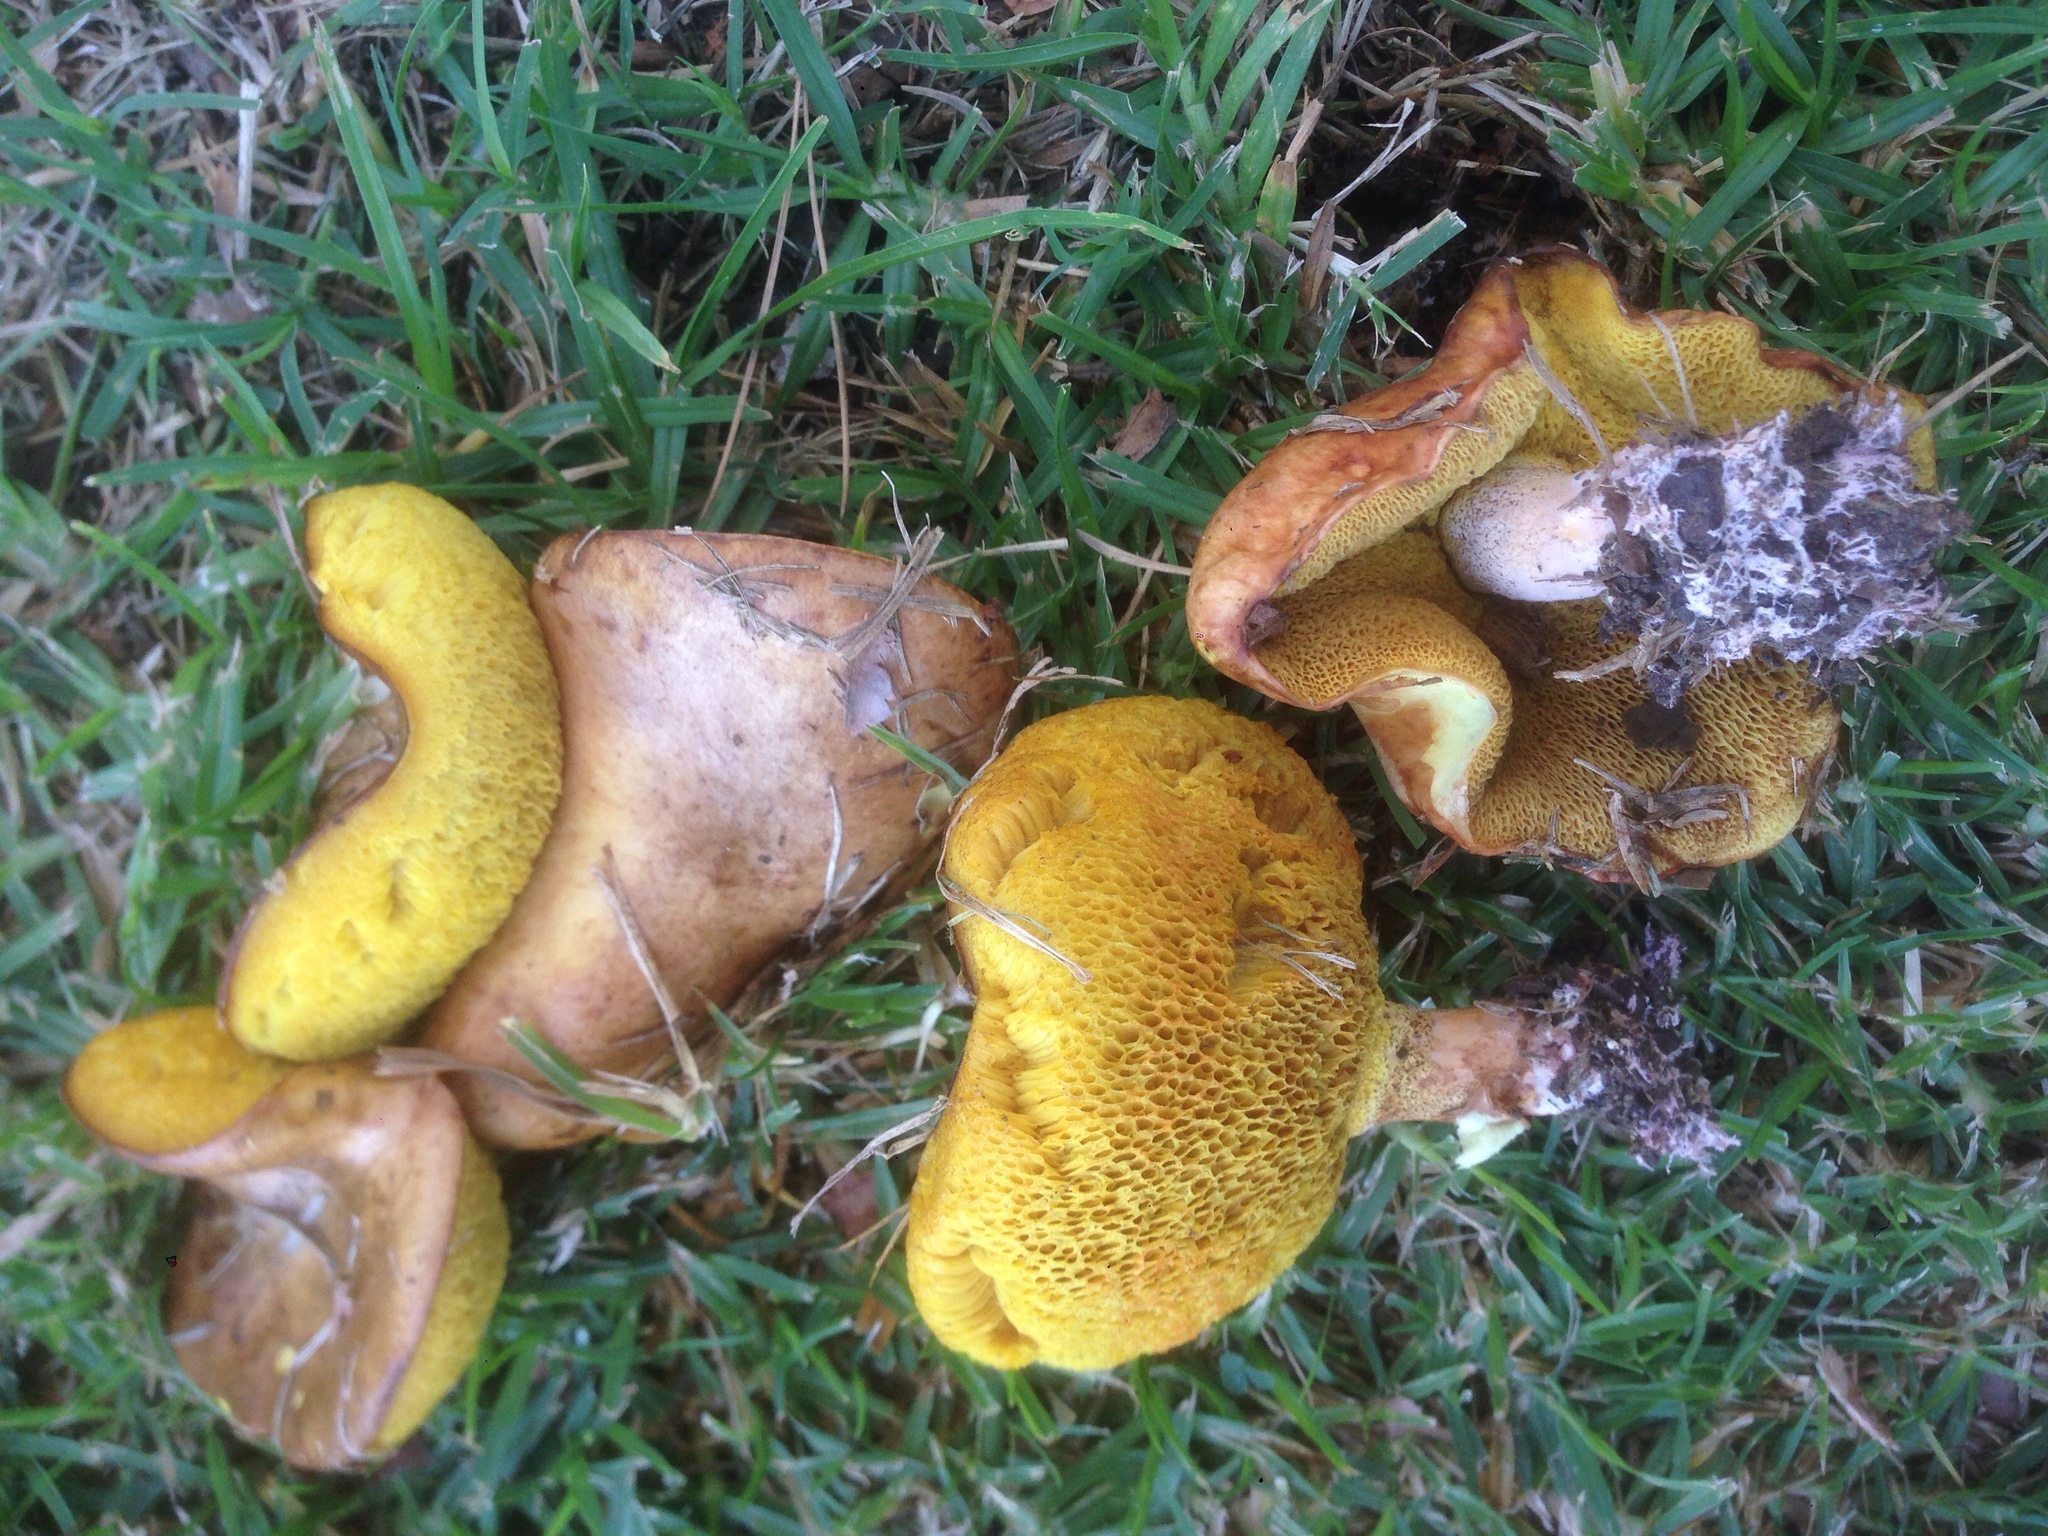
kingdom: Fungi
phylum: Basidiomycota
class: Agaricomycetes
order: Boletales
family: Suillaceae
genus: Suillus
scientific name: Suillus pungens
